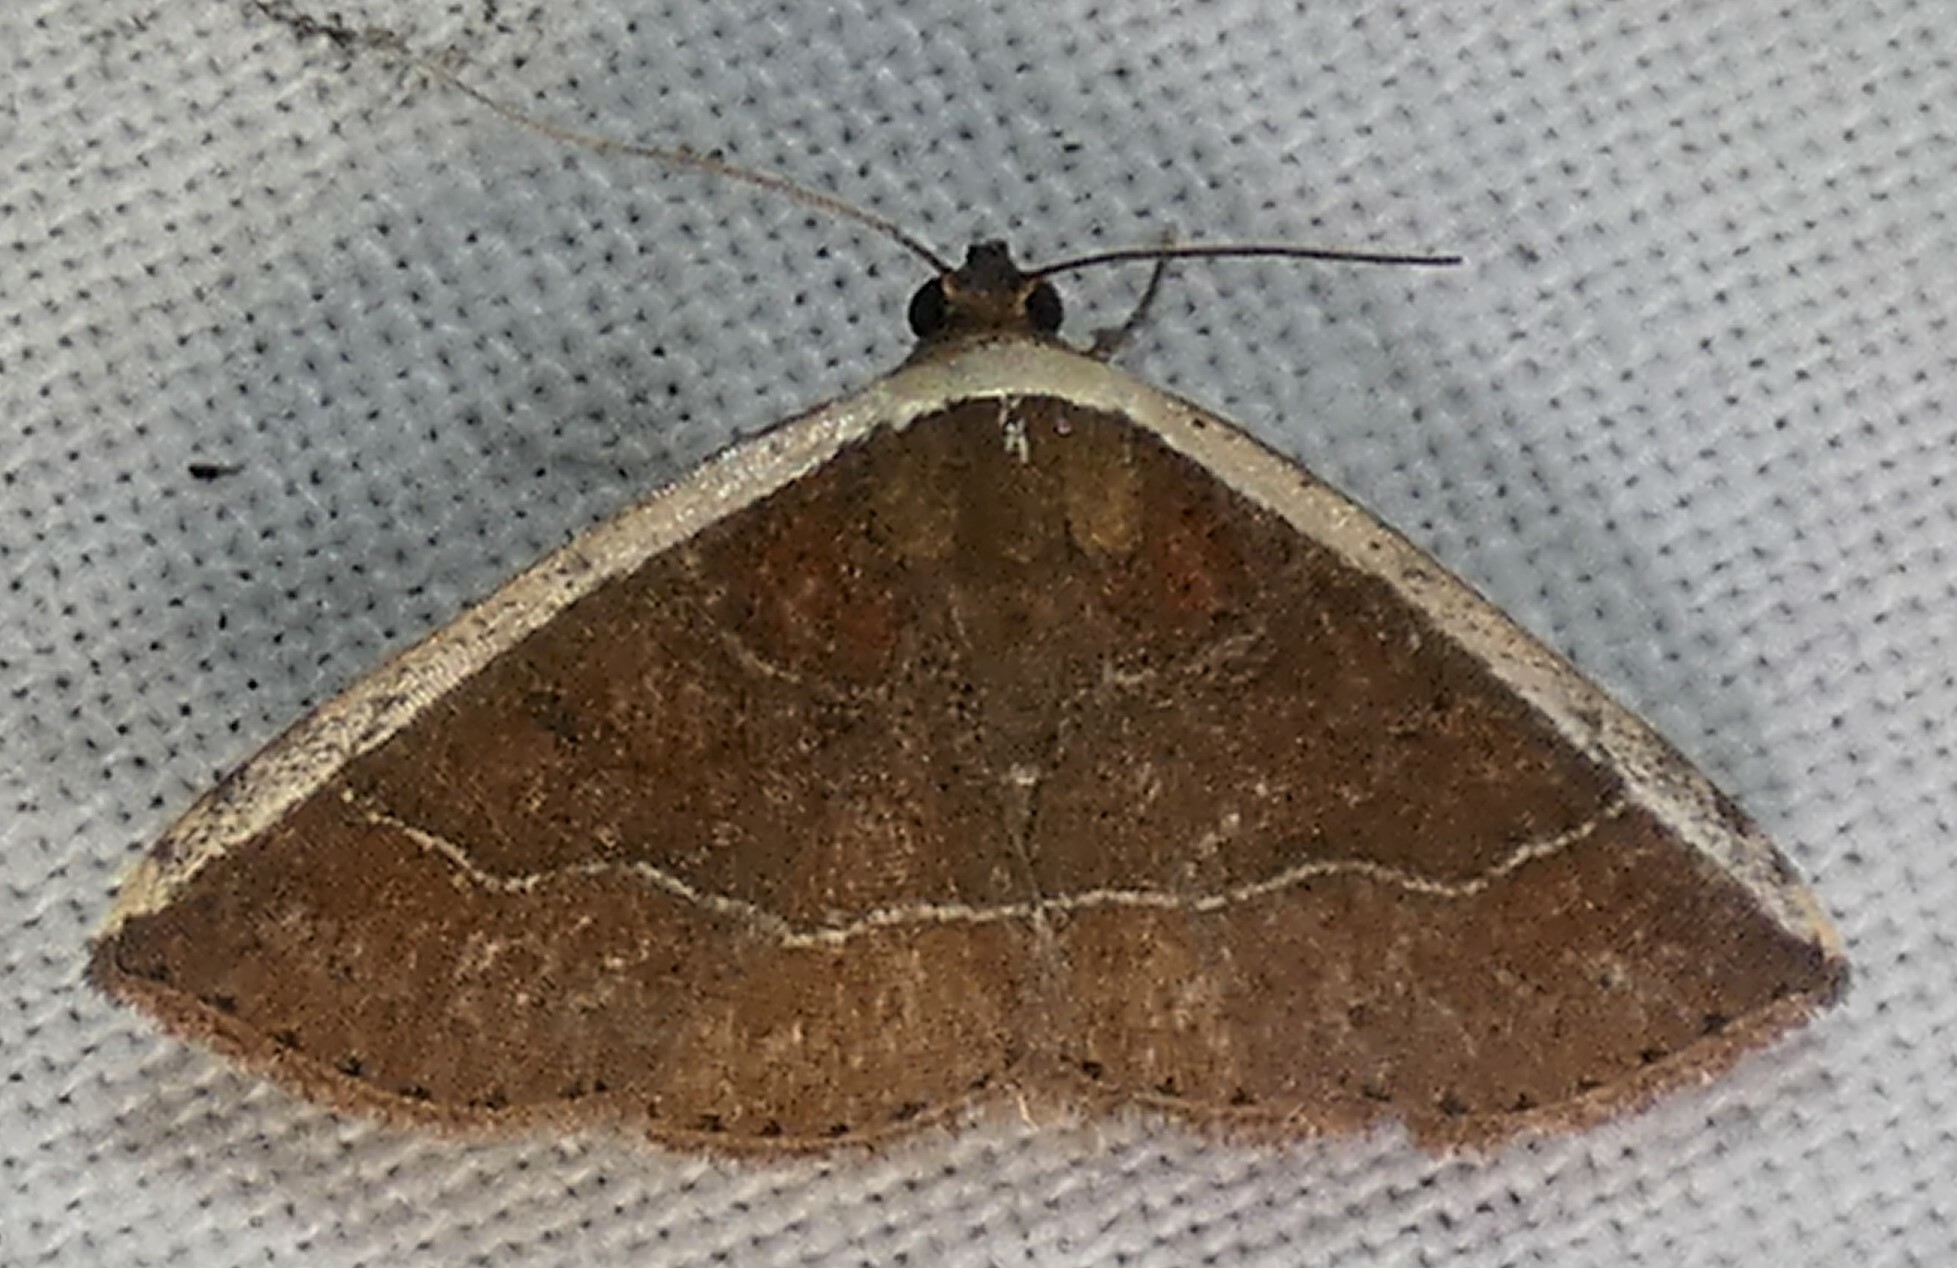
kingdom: Animalia
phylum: Arthropoda
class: Insecta
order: Lepidoptera
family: Noctuidae
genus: Ozarba
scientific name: Ozarba albocostaliata
